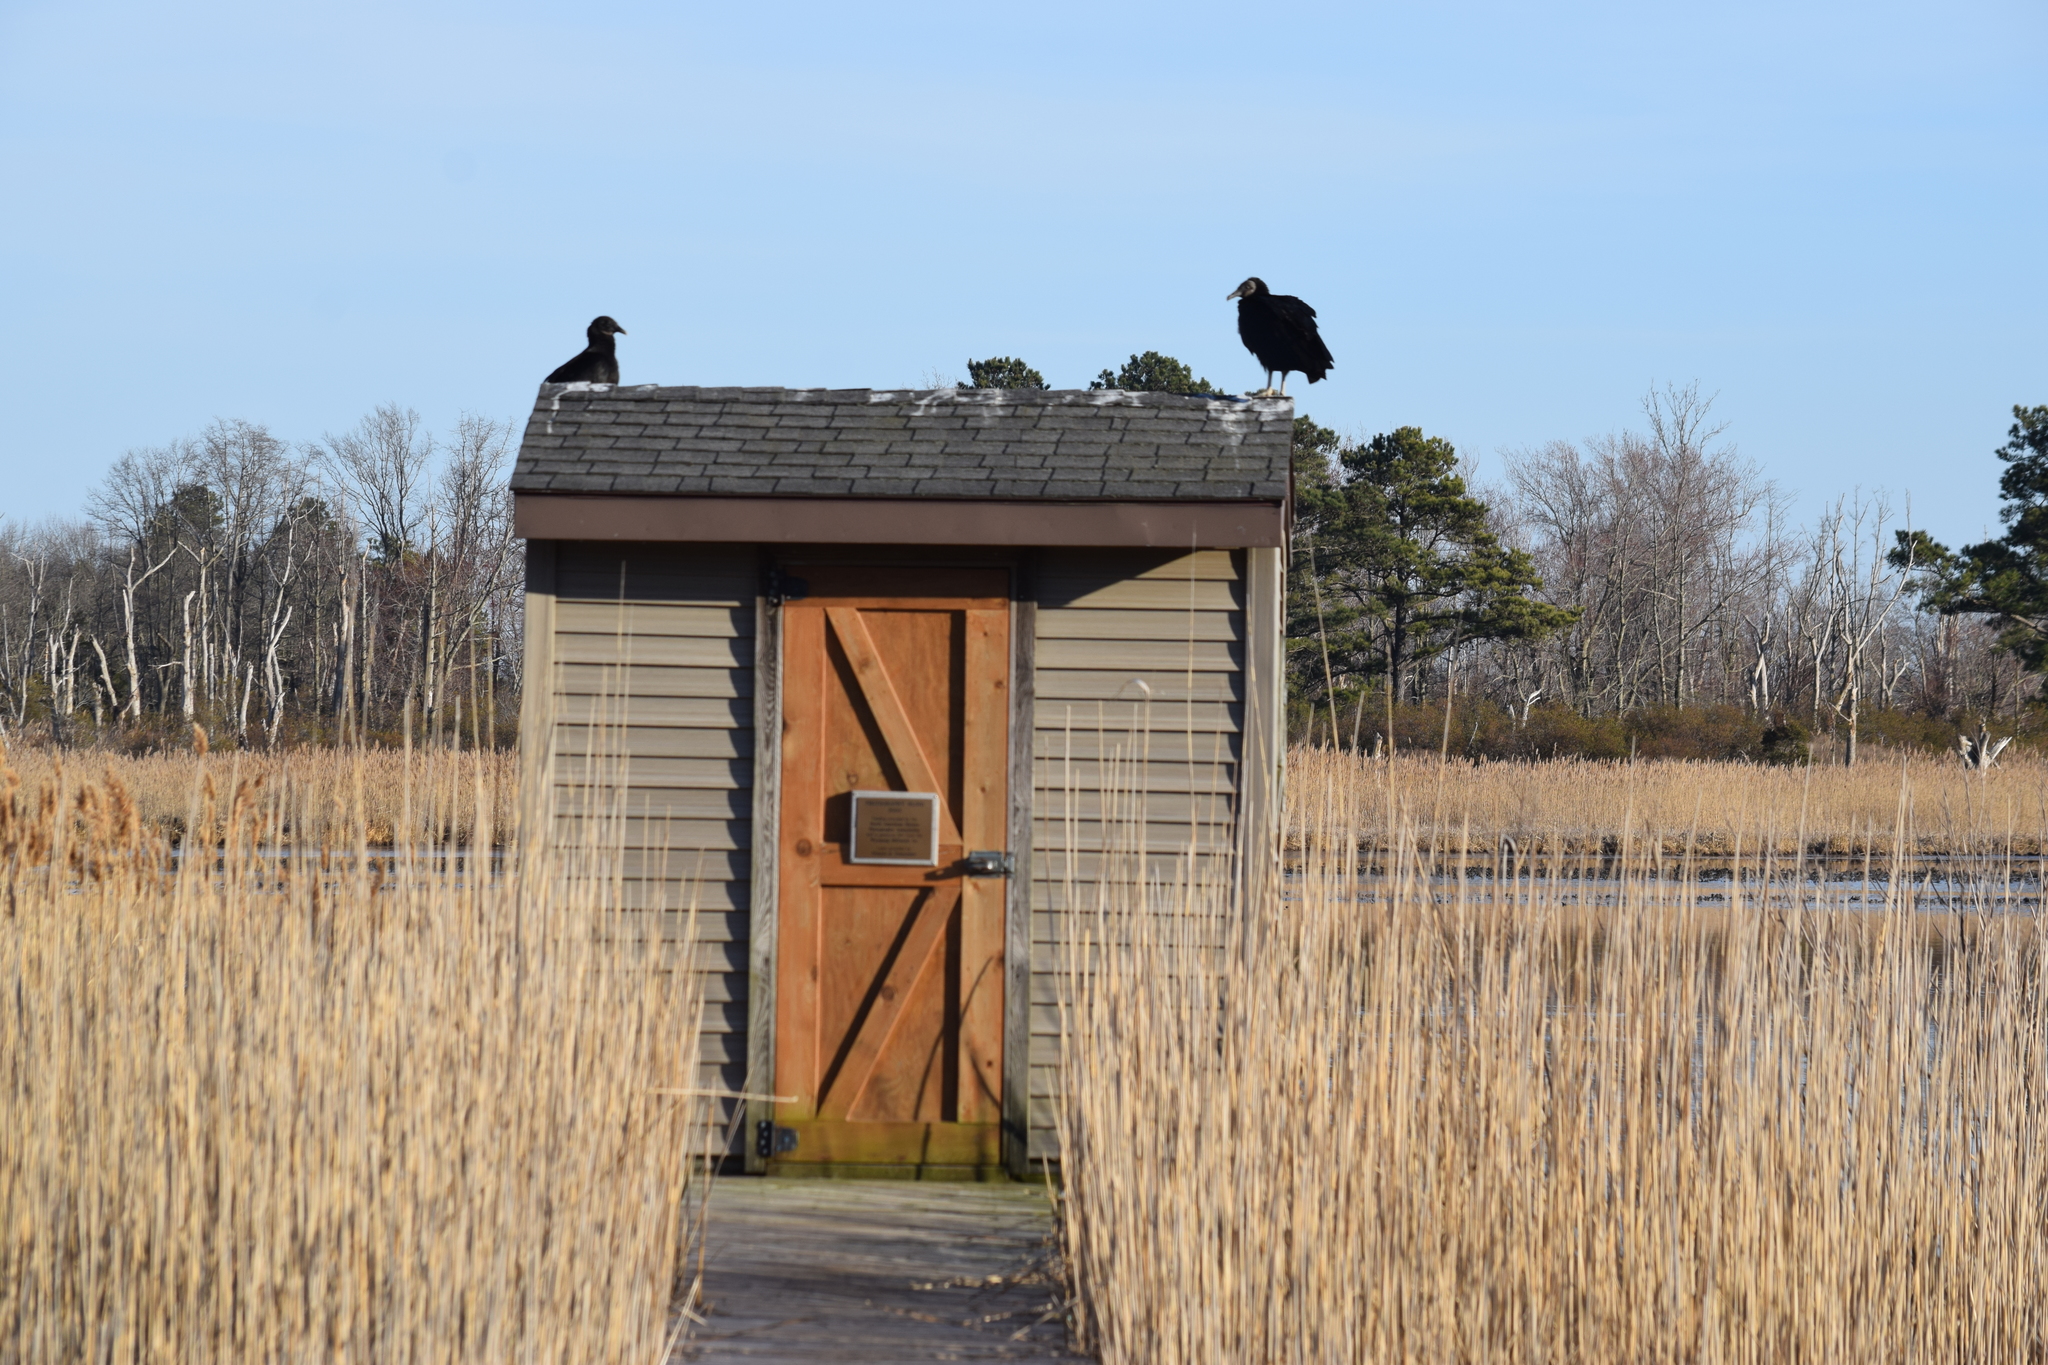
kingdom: Animalia
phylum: Chordata
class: Aves
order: Accipitriformes
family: Cathartidae
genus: Coragyps
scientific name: Coragyps atratus
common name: Black vulture
